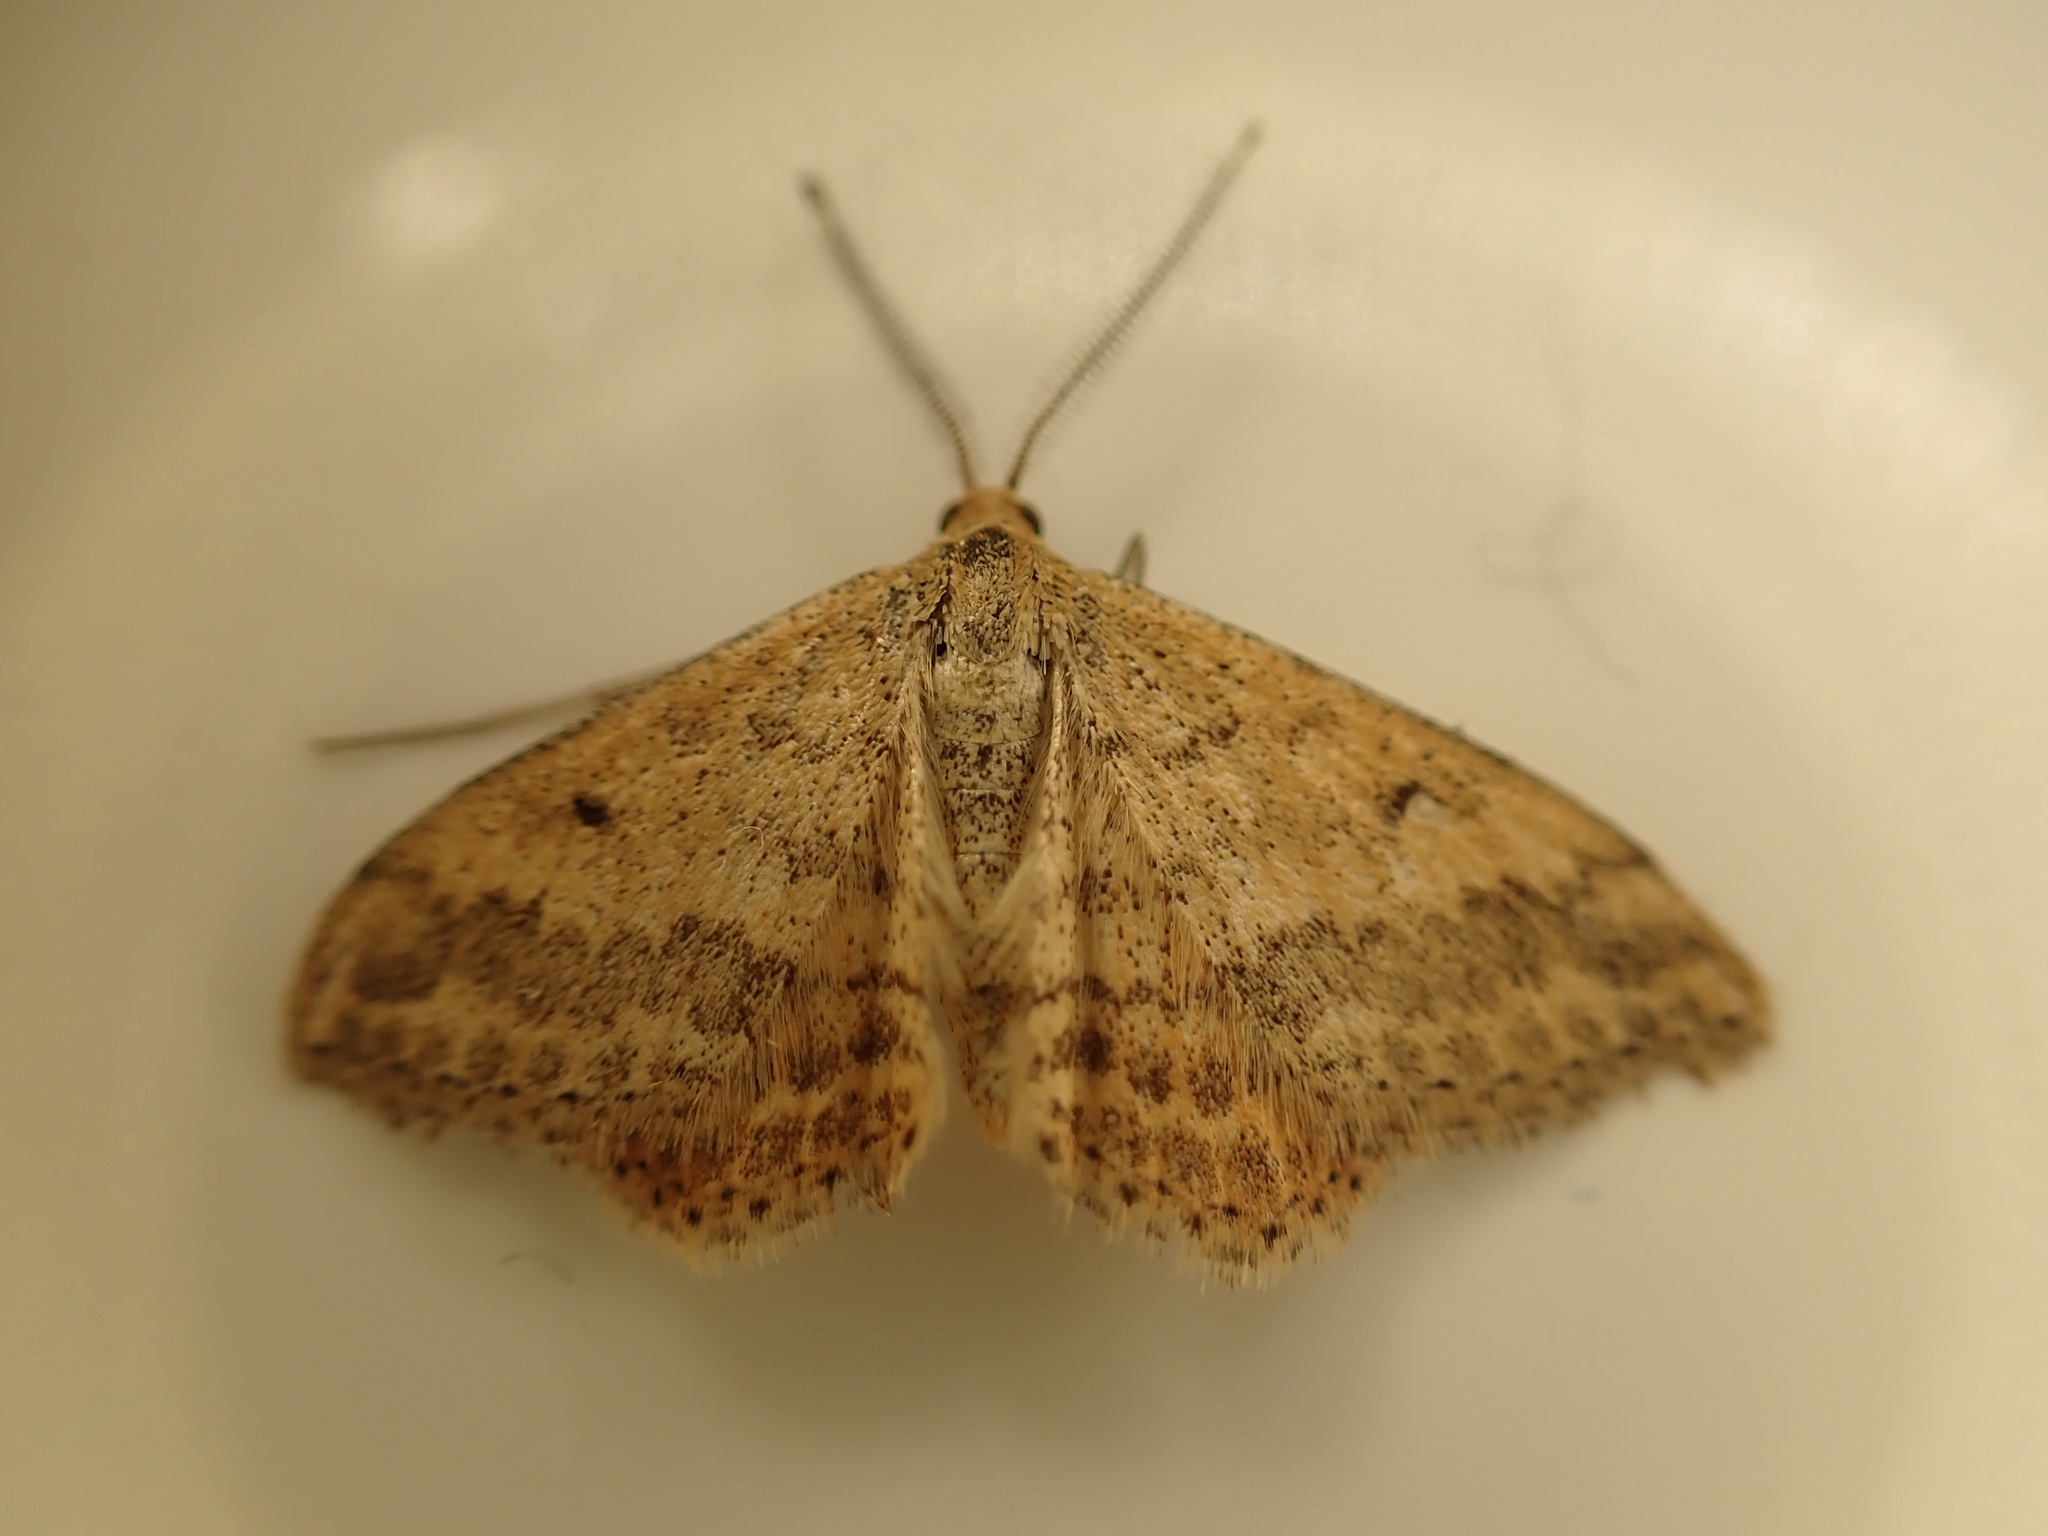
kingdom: Animalia
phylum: Arthropoda
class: Insecta
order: Lepidoptera
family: Geometridae
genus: Scopula
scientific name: Scopula rubraria
